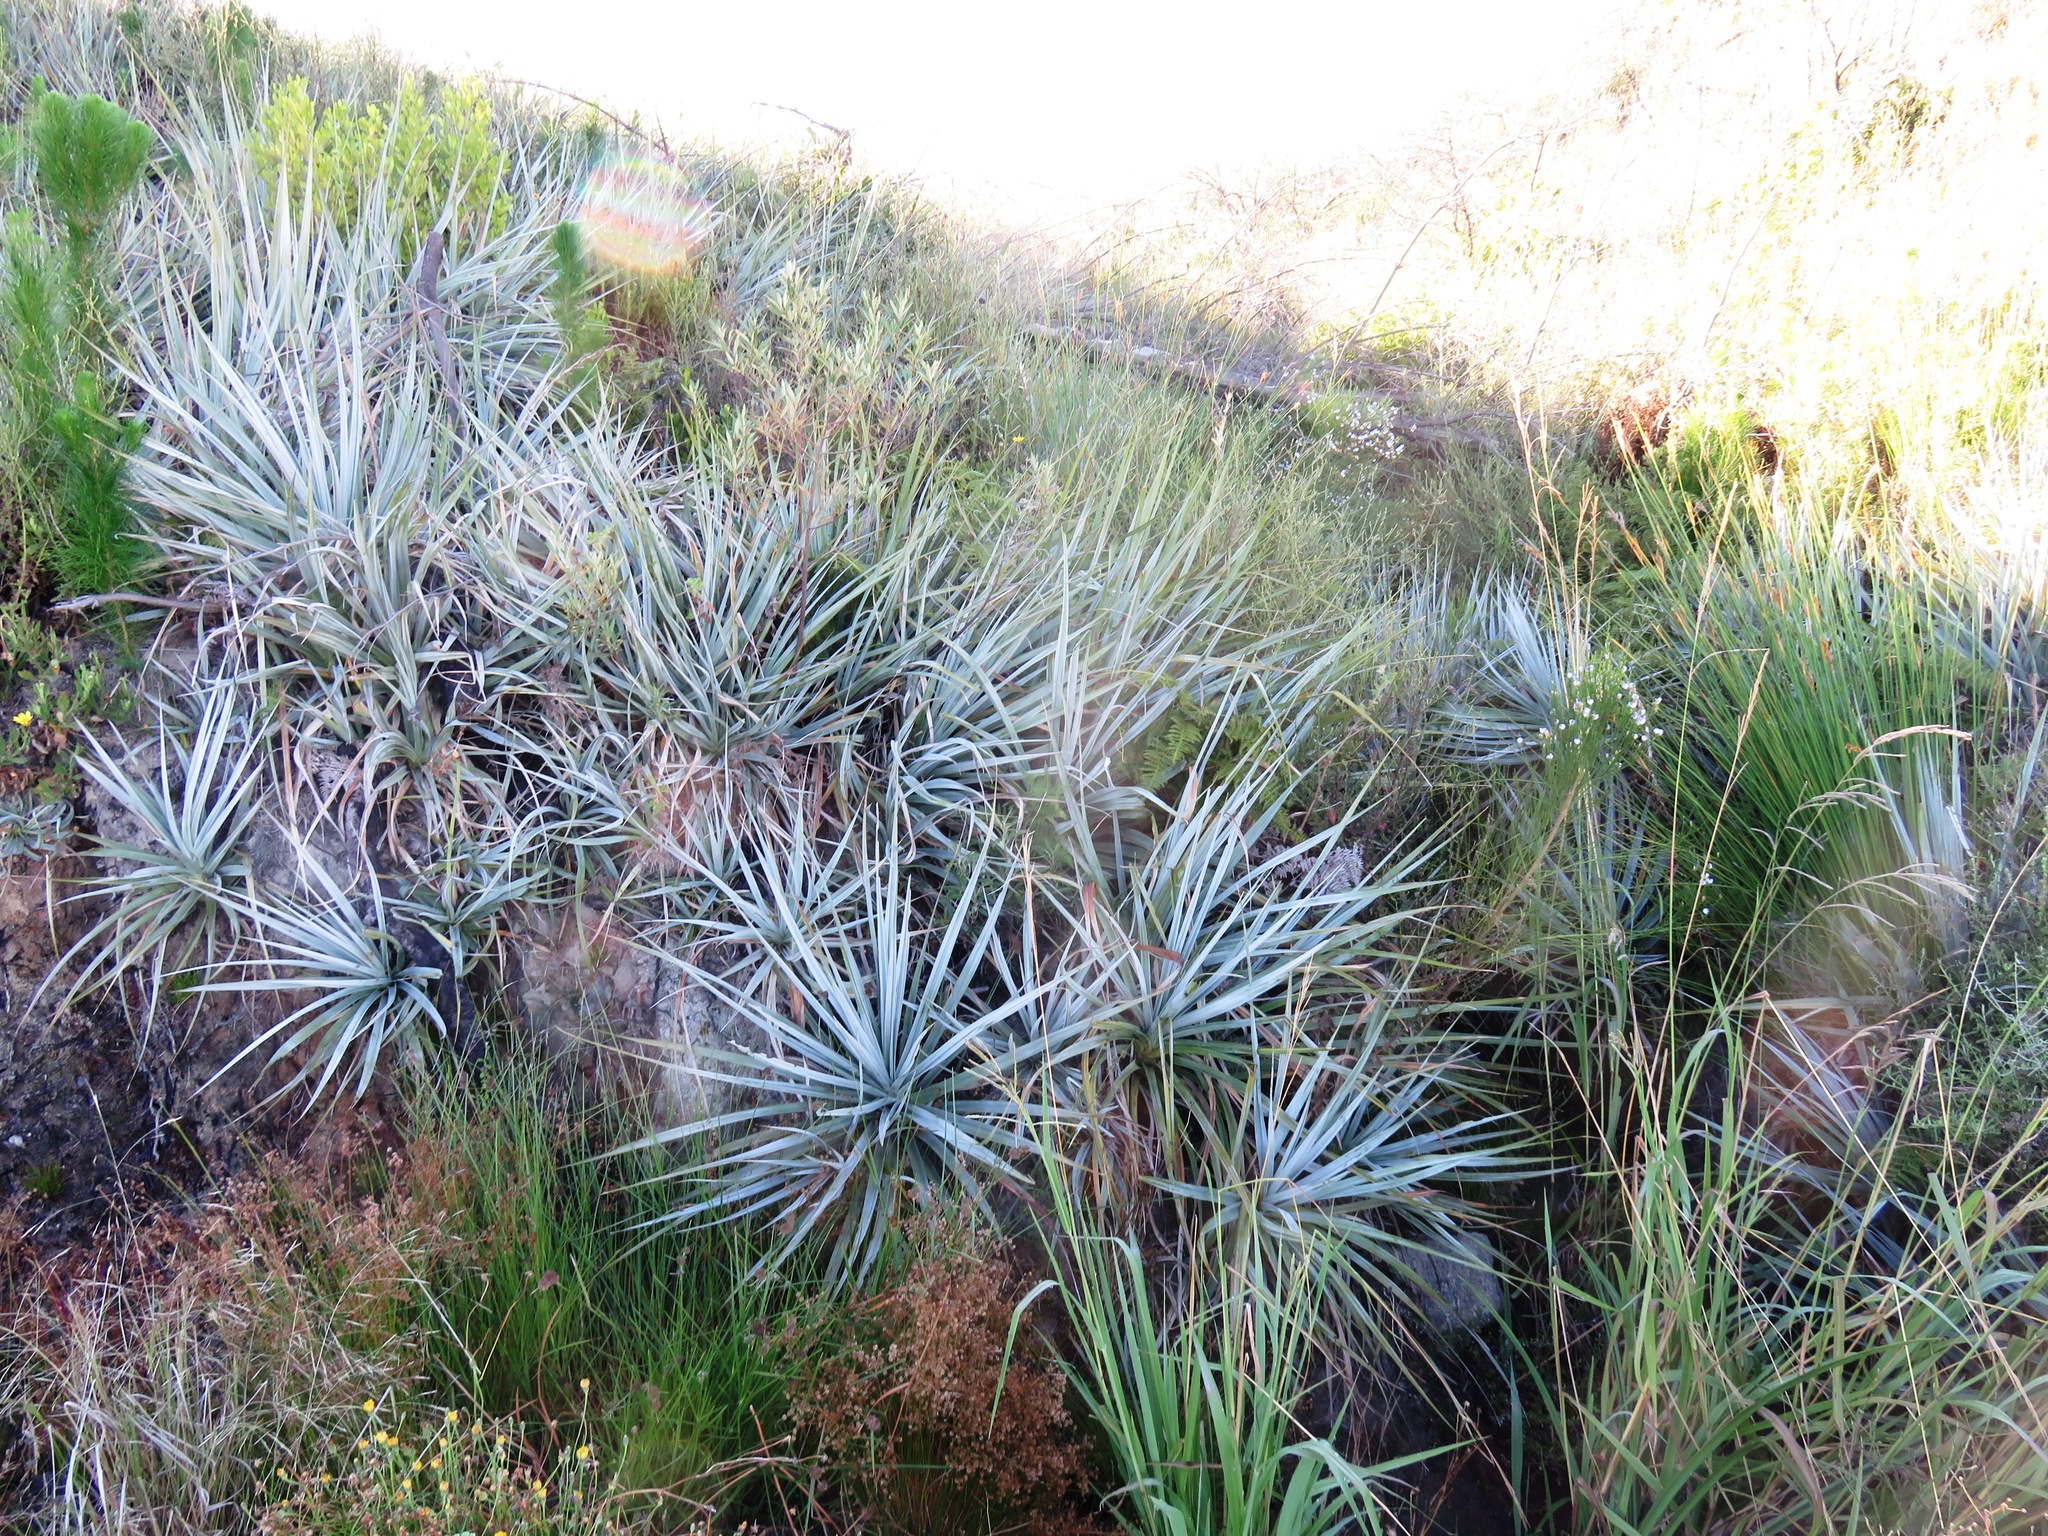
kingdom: Plantae
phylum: Tracheophyta
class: Liliopsida
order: Poales
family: Thurniaceae
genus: Prionium
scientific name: Prionium serratum
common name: Palmiet
